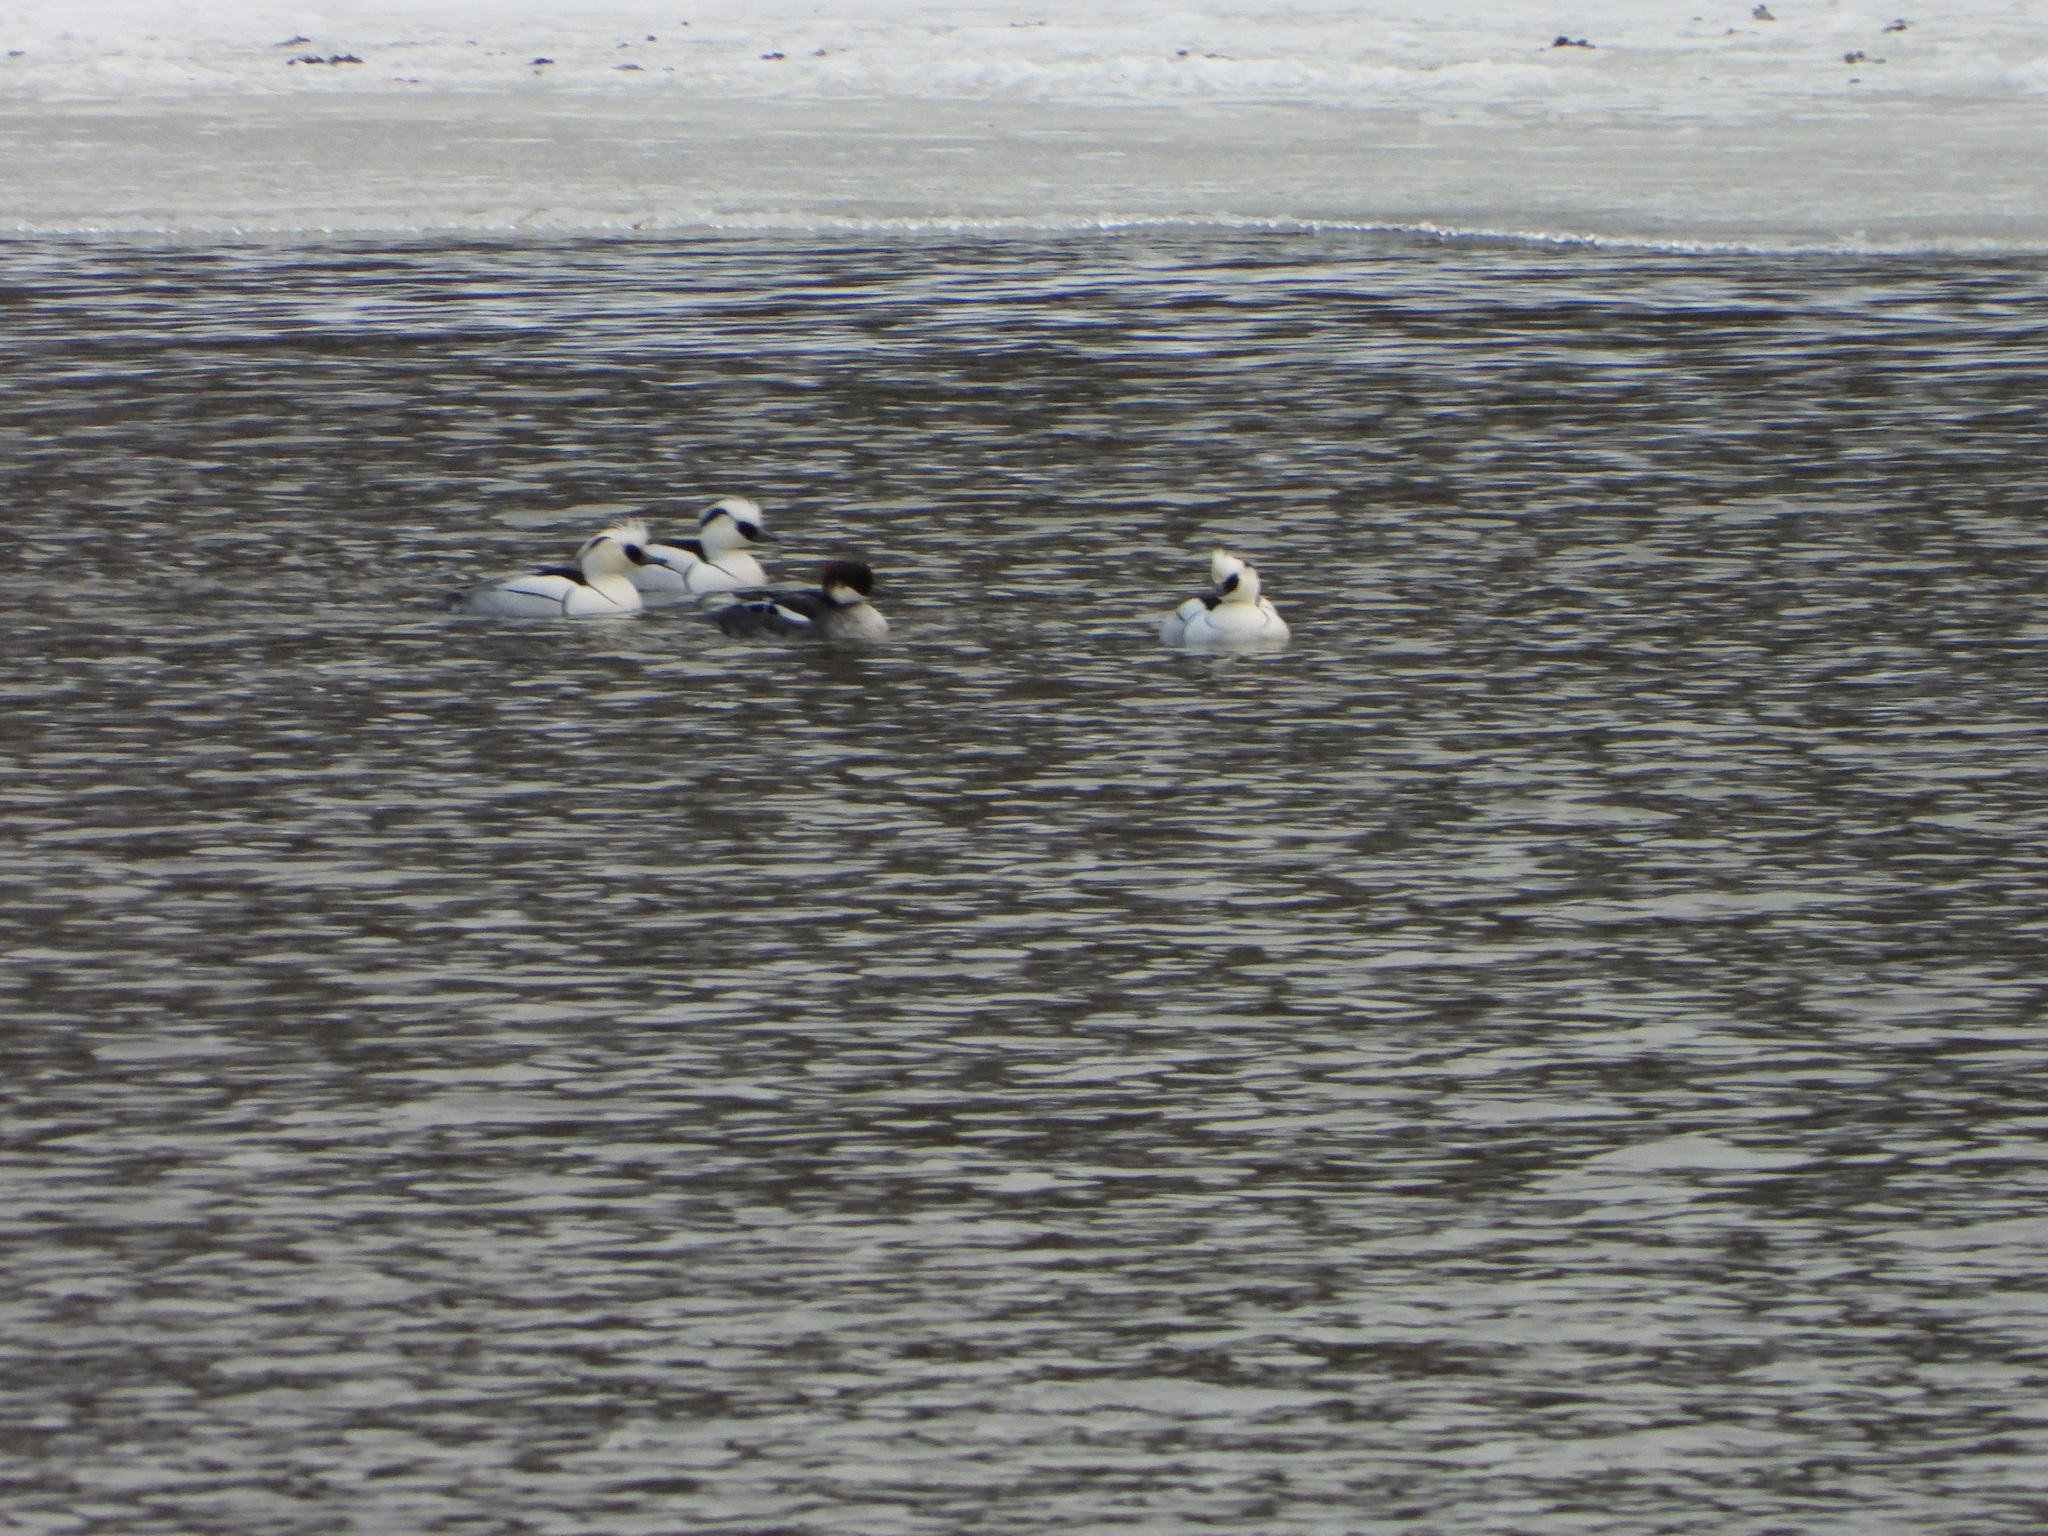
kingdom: Animalia
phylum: Chordata
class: Aves
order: Anseriformes
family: Anatidae
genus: Mergellus
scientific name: Mergellus albellus
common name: Smew
